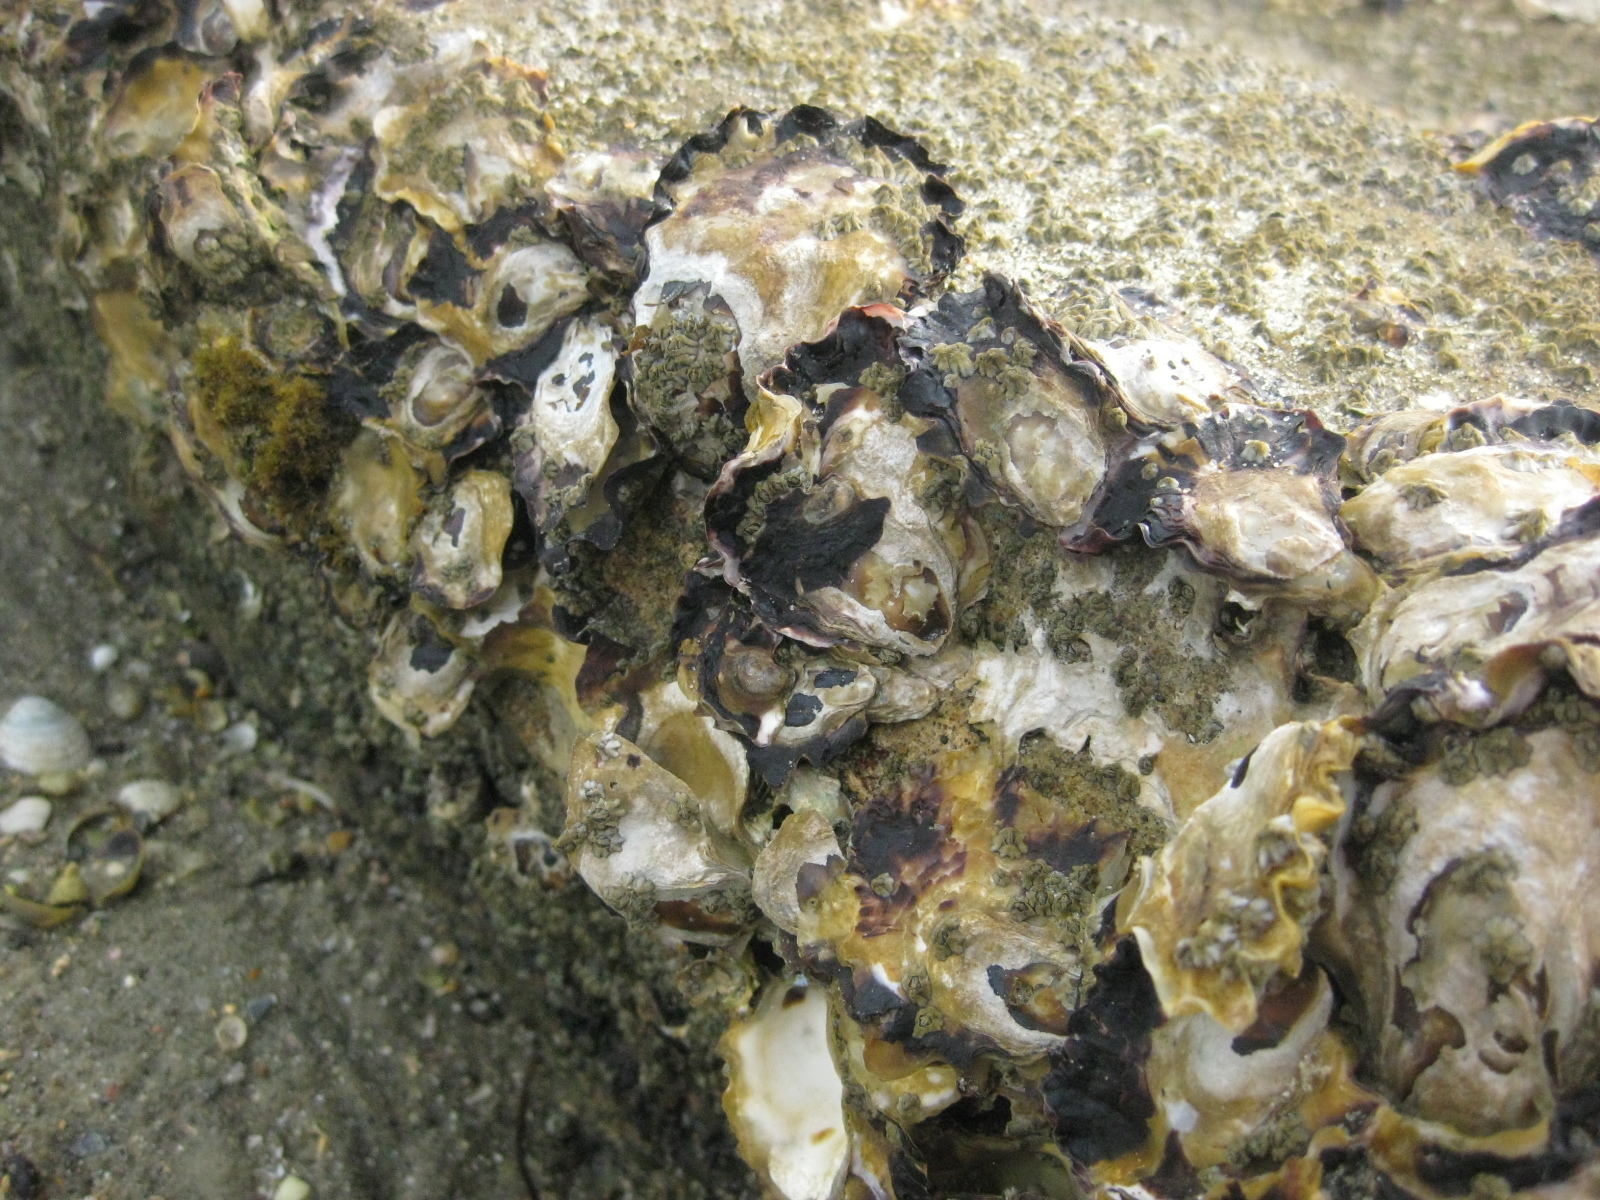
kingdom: Animalia
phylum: Arthropoda
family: Elminiidae
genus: Austrominius
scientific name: Austrominius modestus
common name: Australasian barnacle
